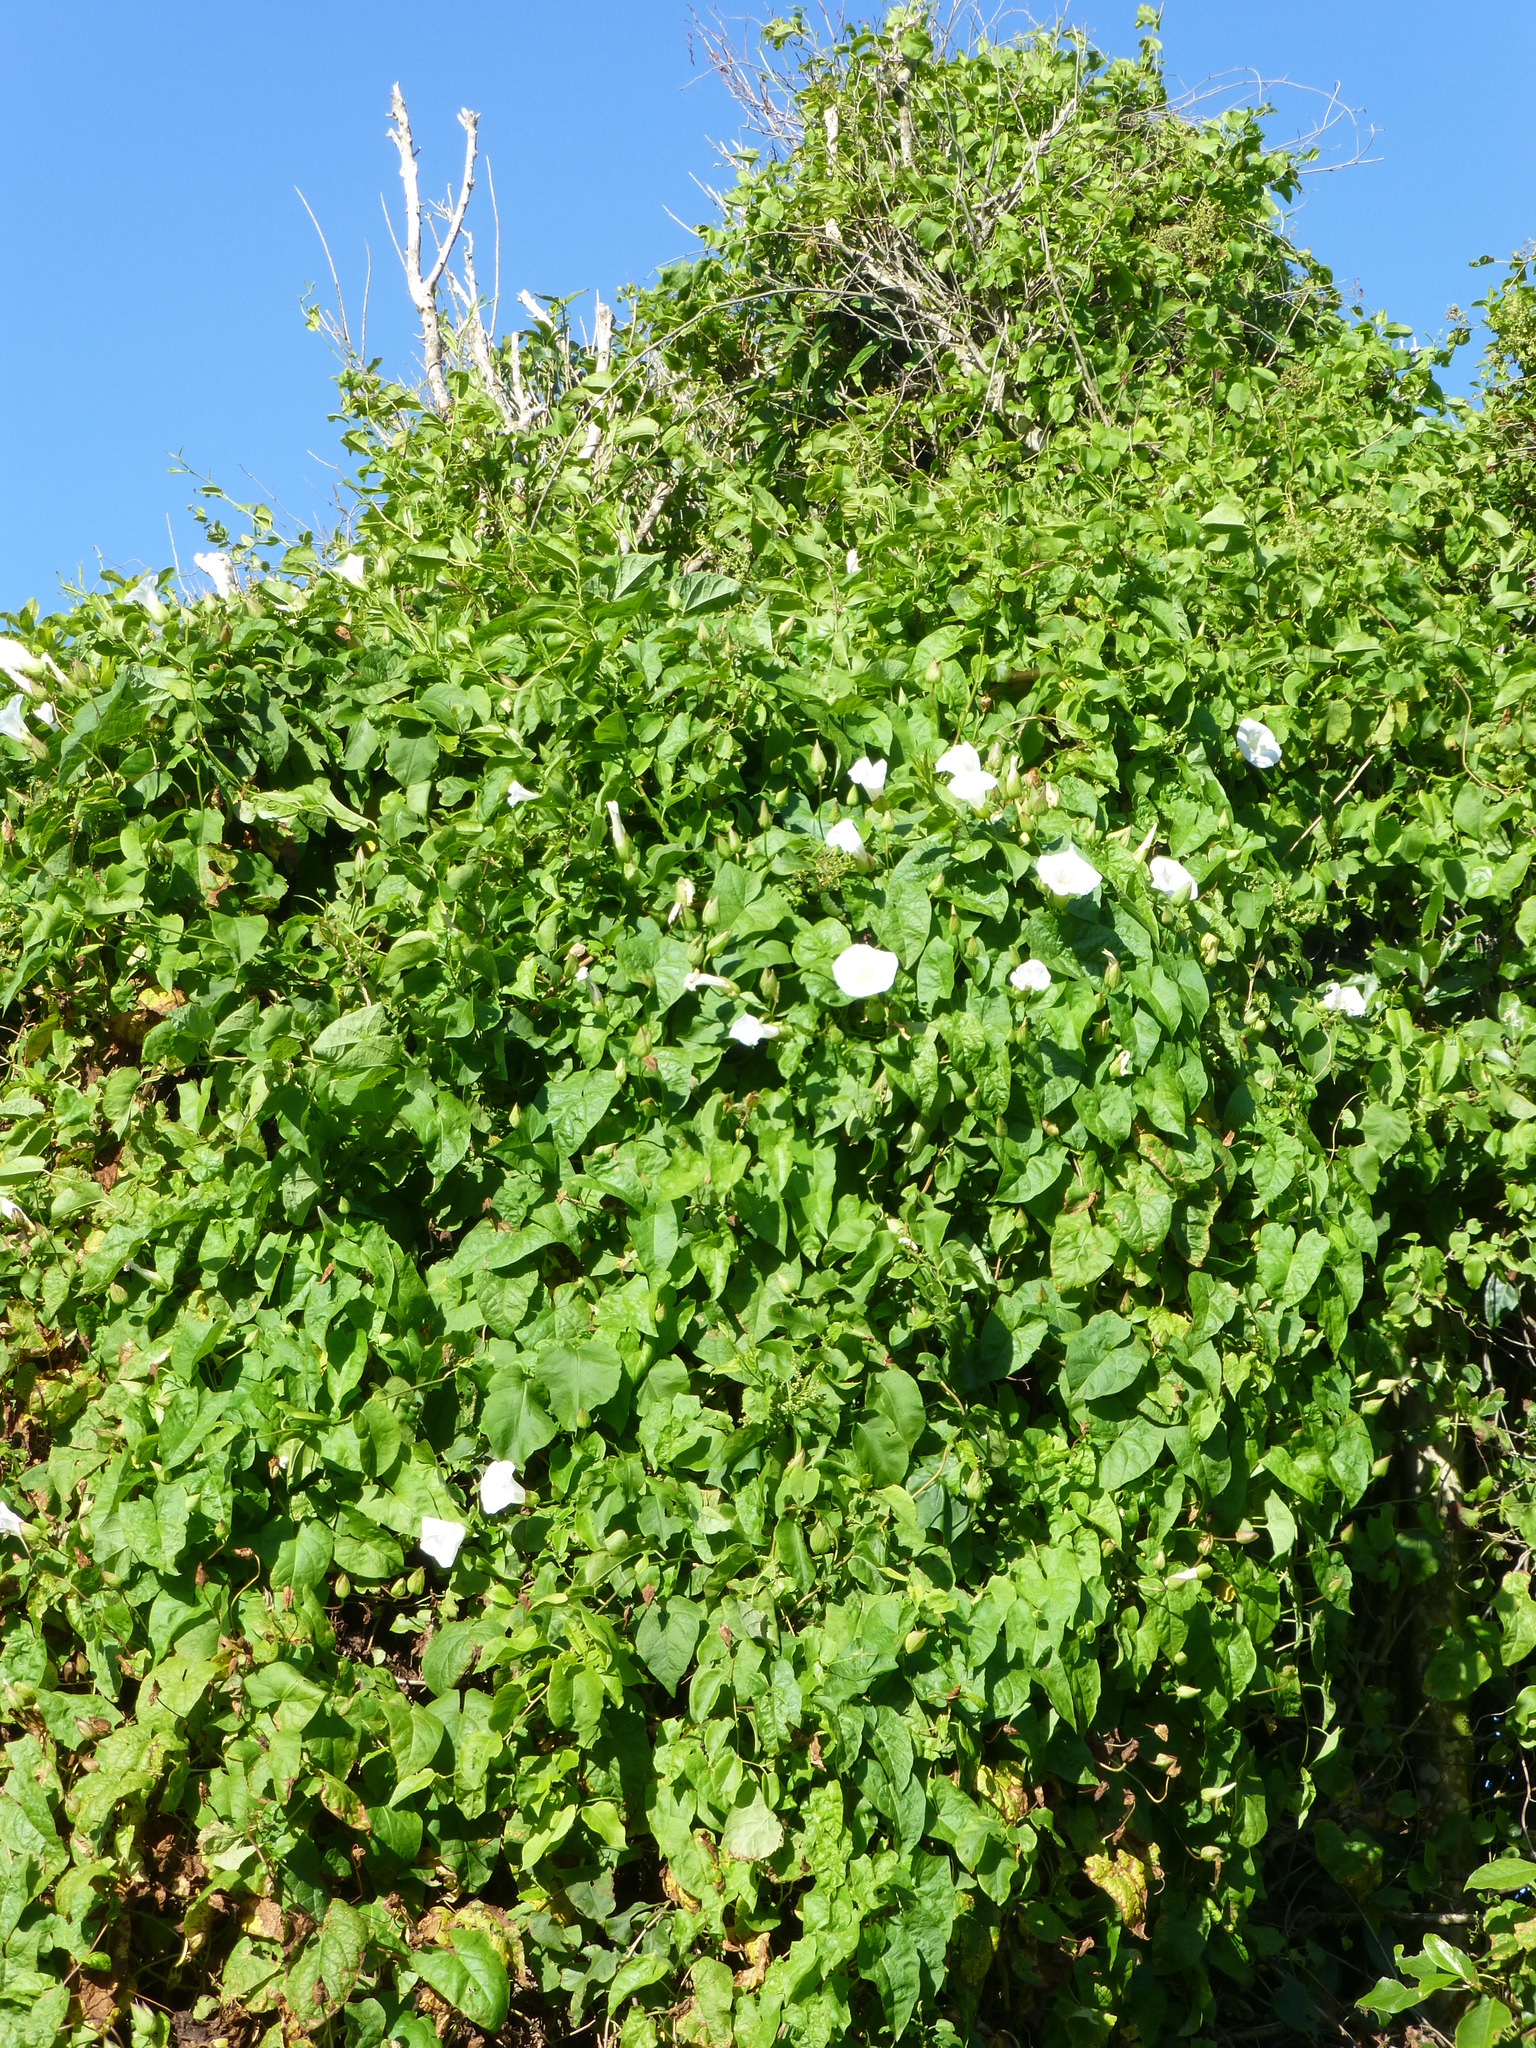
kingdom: Plantae
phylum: Tracheophyta
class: Magnoliopsida
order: Solanales
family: Convolvulaceae
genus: Calystegia
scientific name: Calystegia silvatica
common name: Large bindweed
